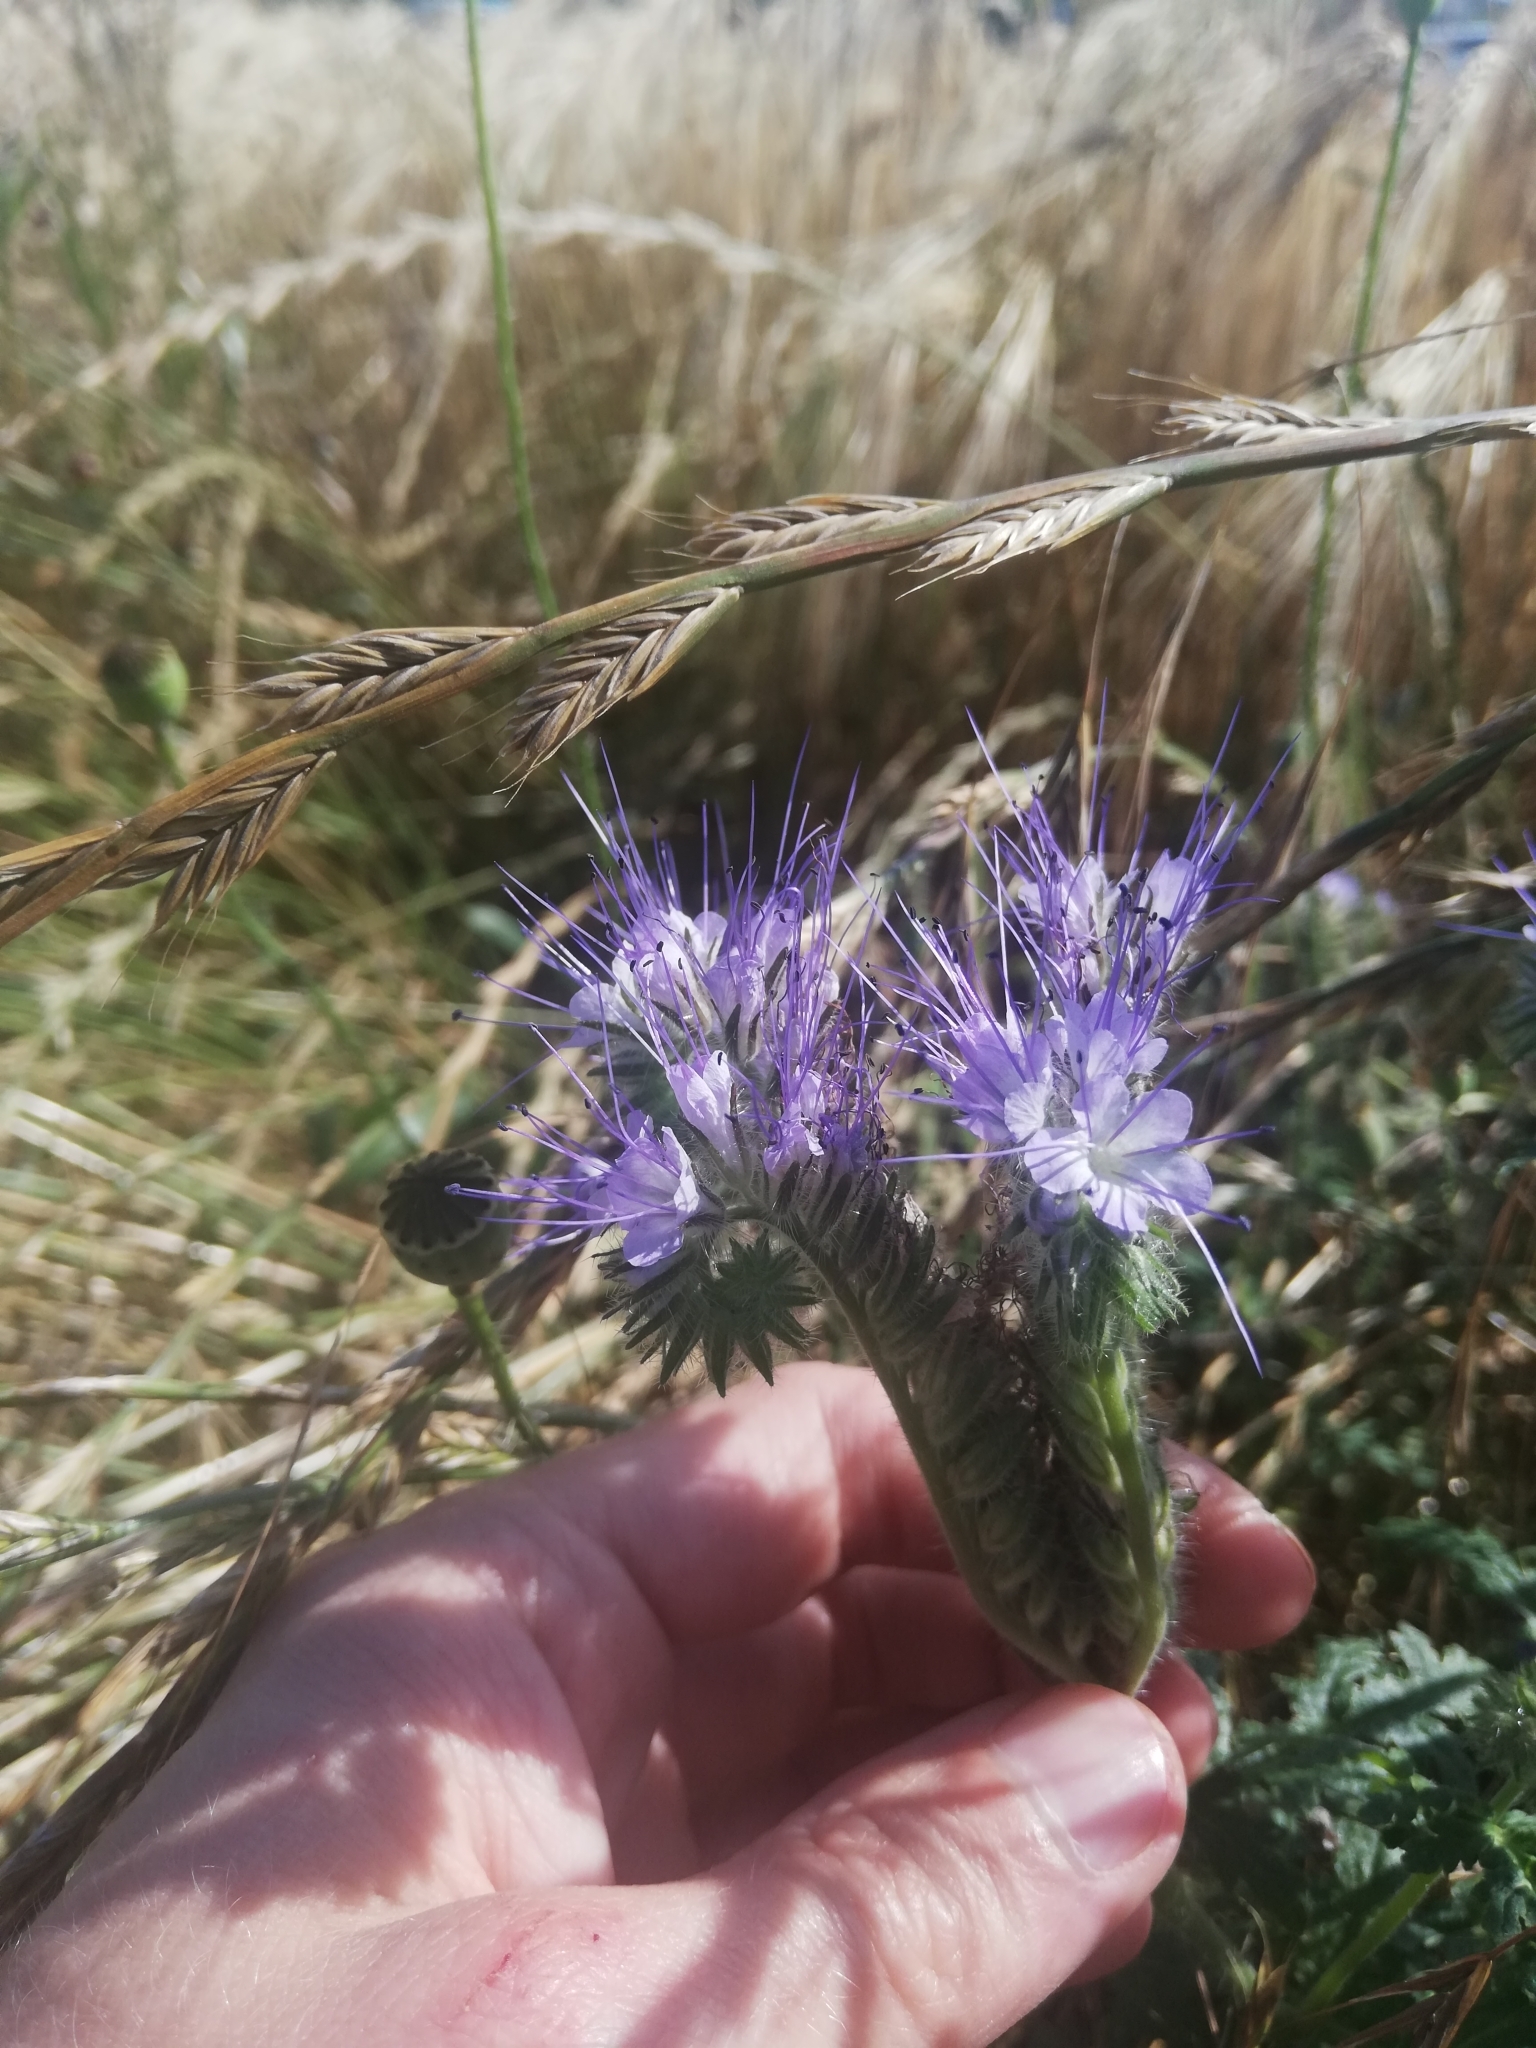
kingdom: Plantae
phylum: Tracheophyta
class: Magnoliopsida
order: Boraginales
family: Hydrophyllaceae
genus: Phacelia
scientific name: Phacelia tanacetifolia
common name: Phacelia
